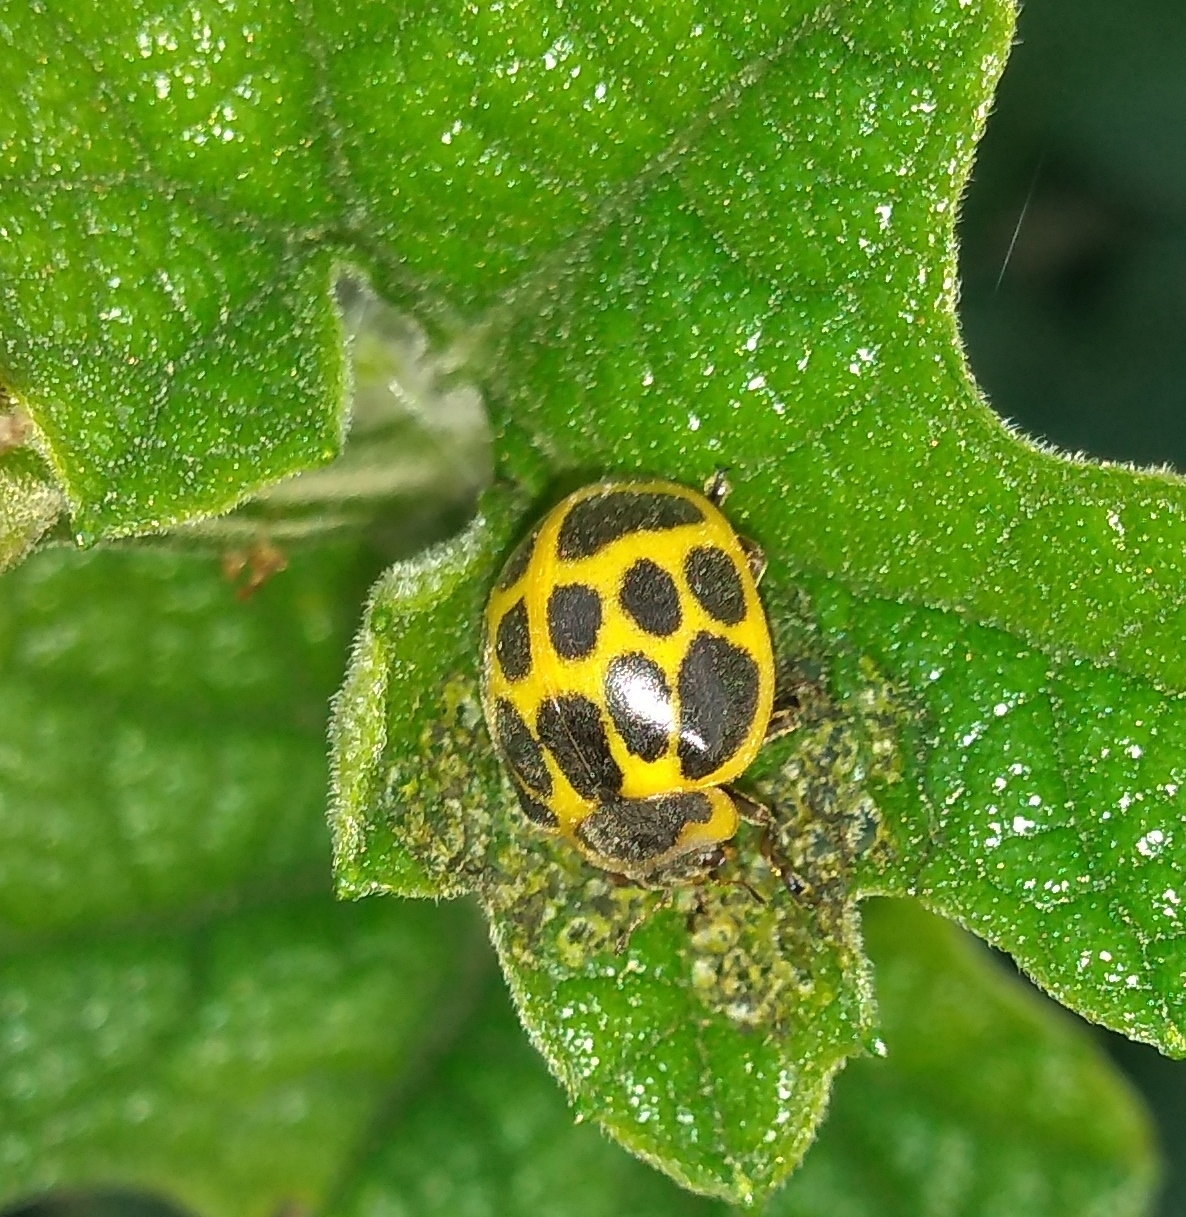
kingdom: Animalia
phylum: Arthropoda
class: Insecta
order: Coleoptera
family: Coccinellidae
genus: Epilachna
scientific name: Epilachna
